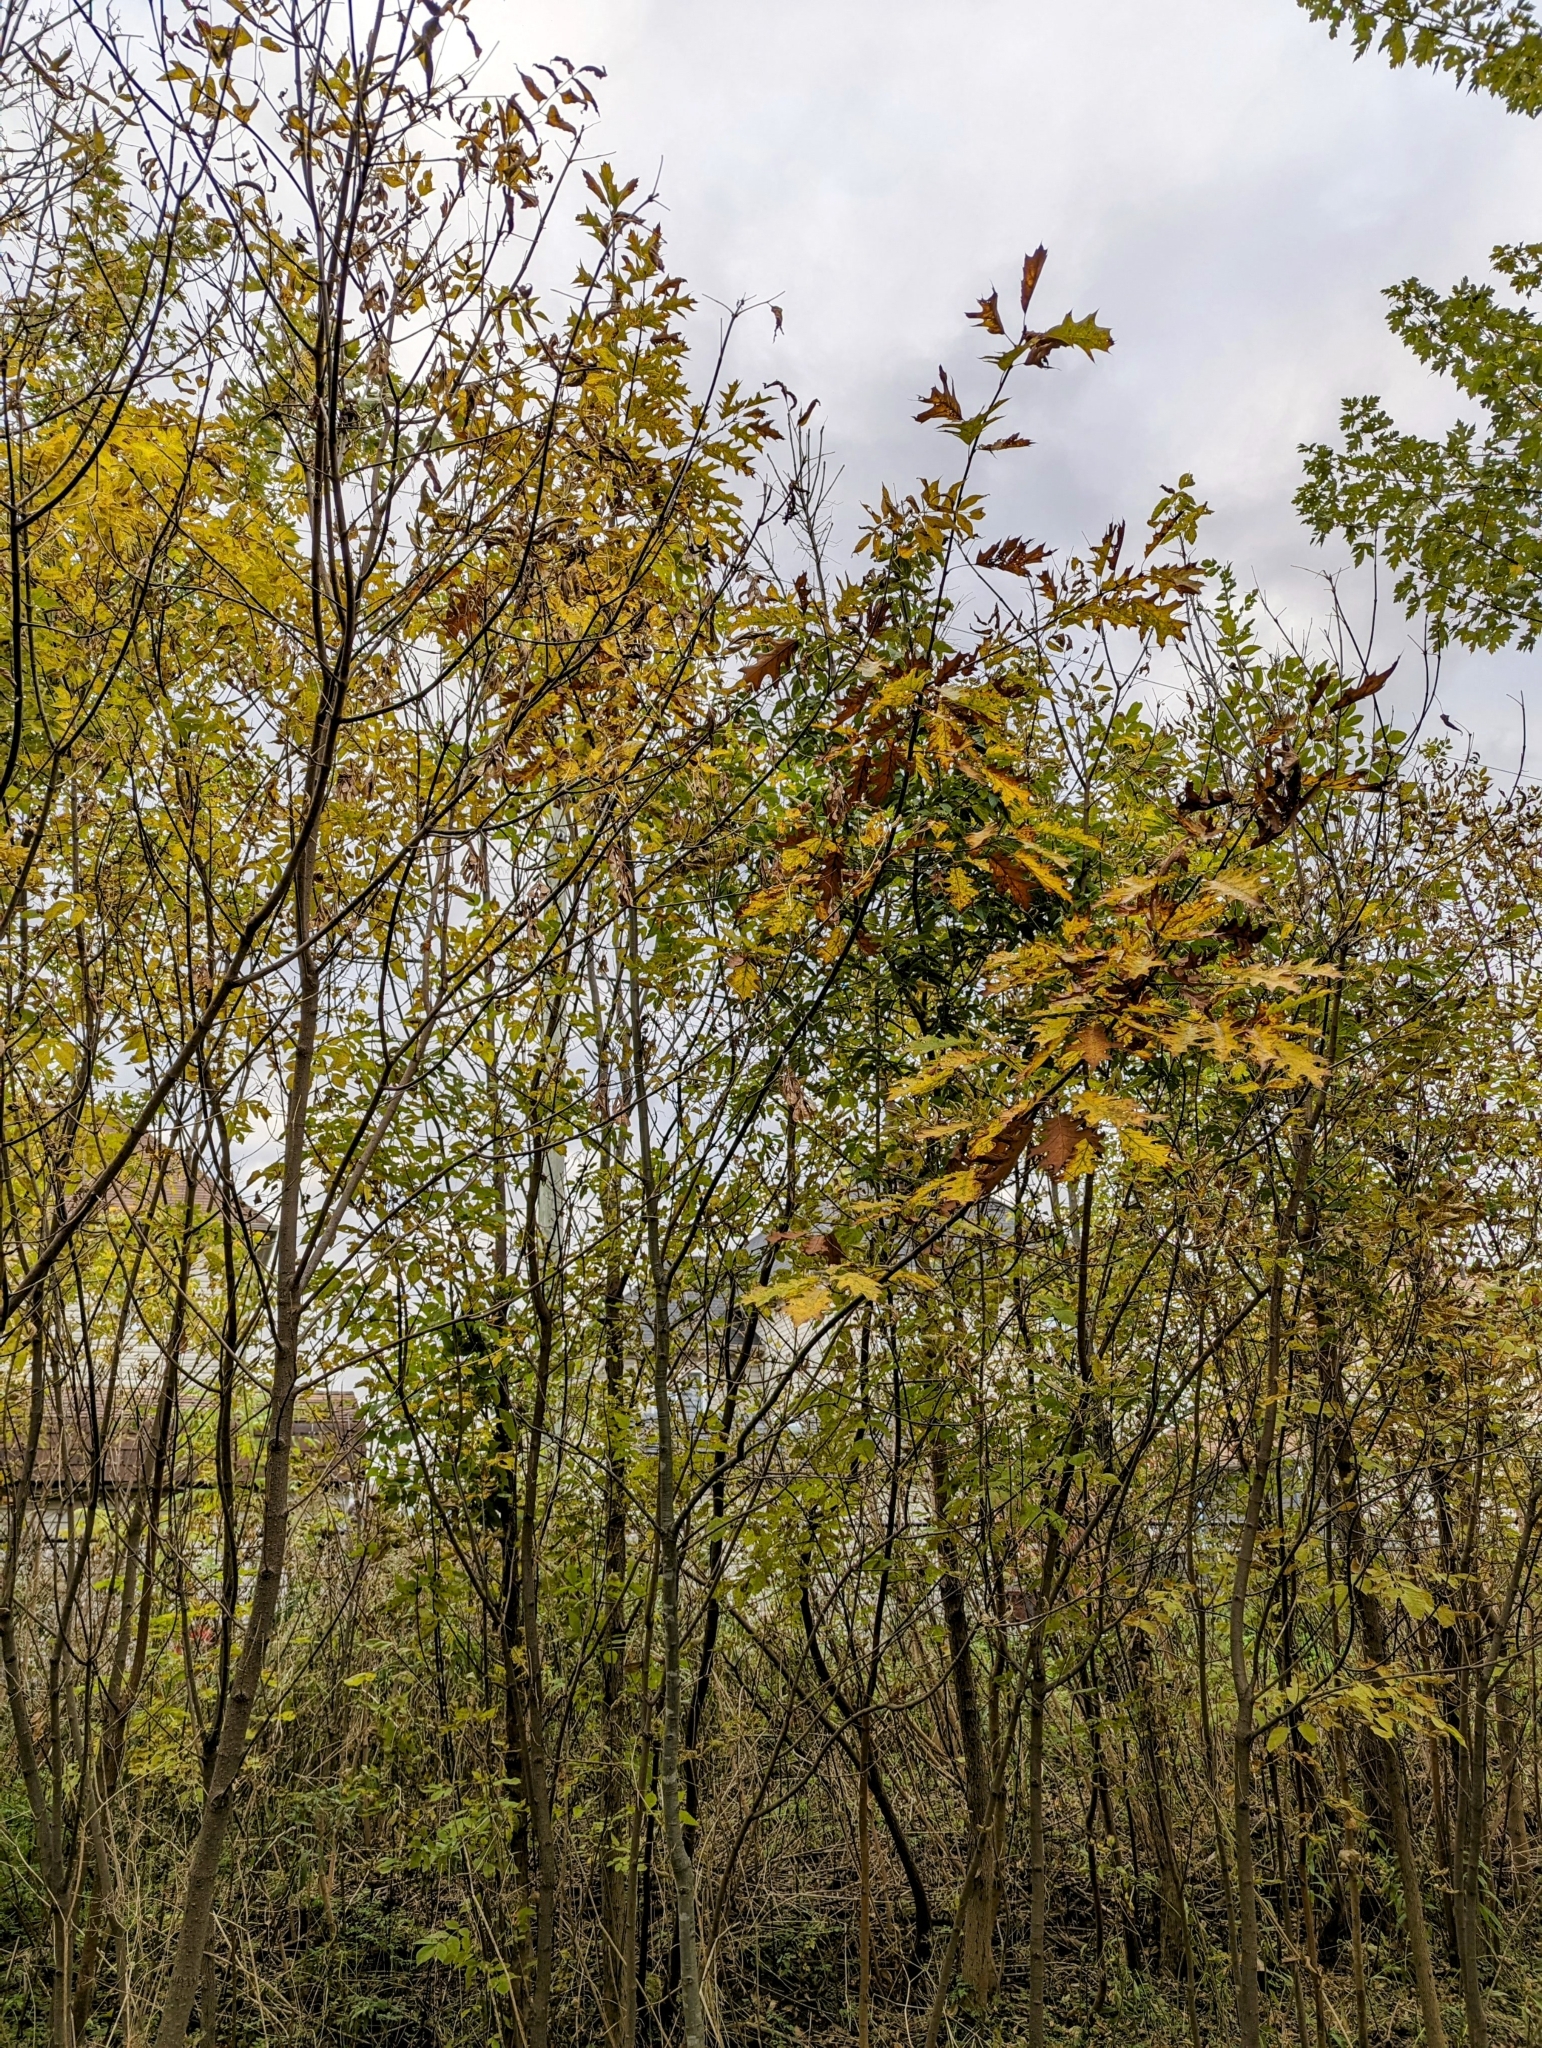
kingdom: Plantae
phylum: Tracheophyta
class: Magnoliopsida
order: Fagales
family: Fagaceae
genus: Quercus
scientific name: Quercus rubra
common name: Red oak
